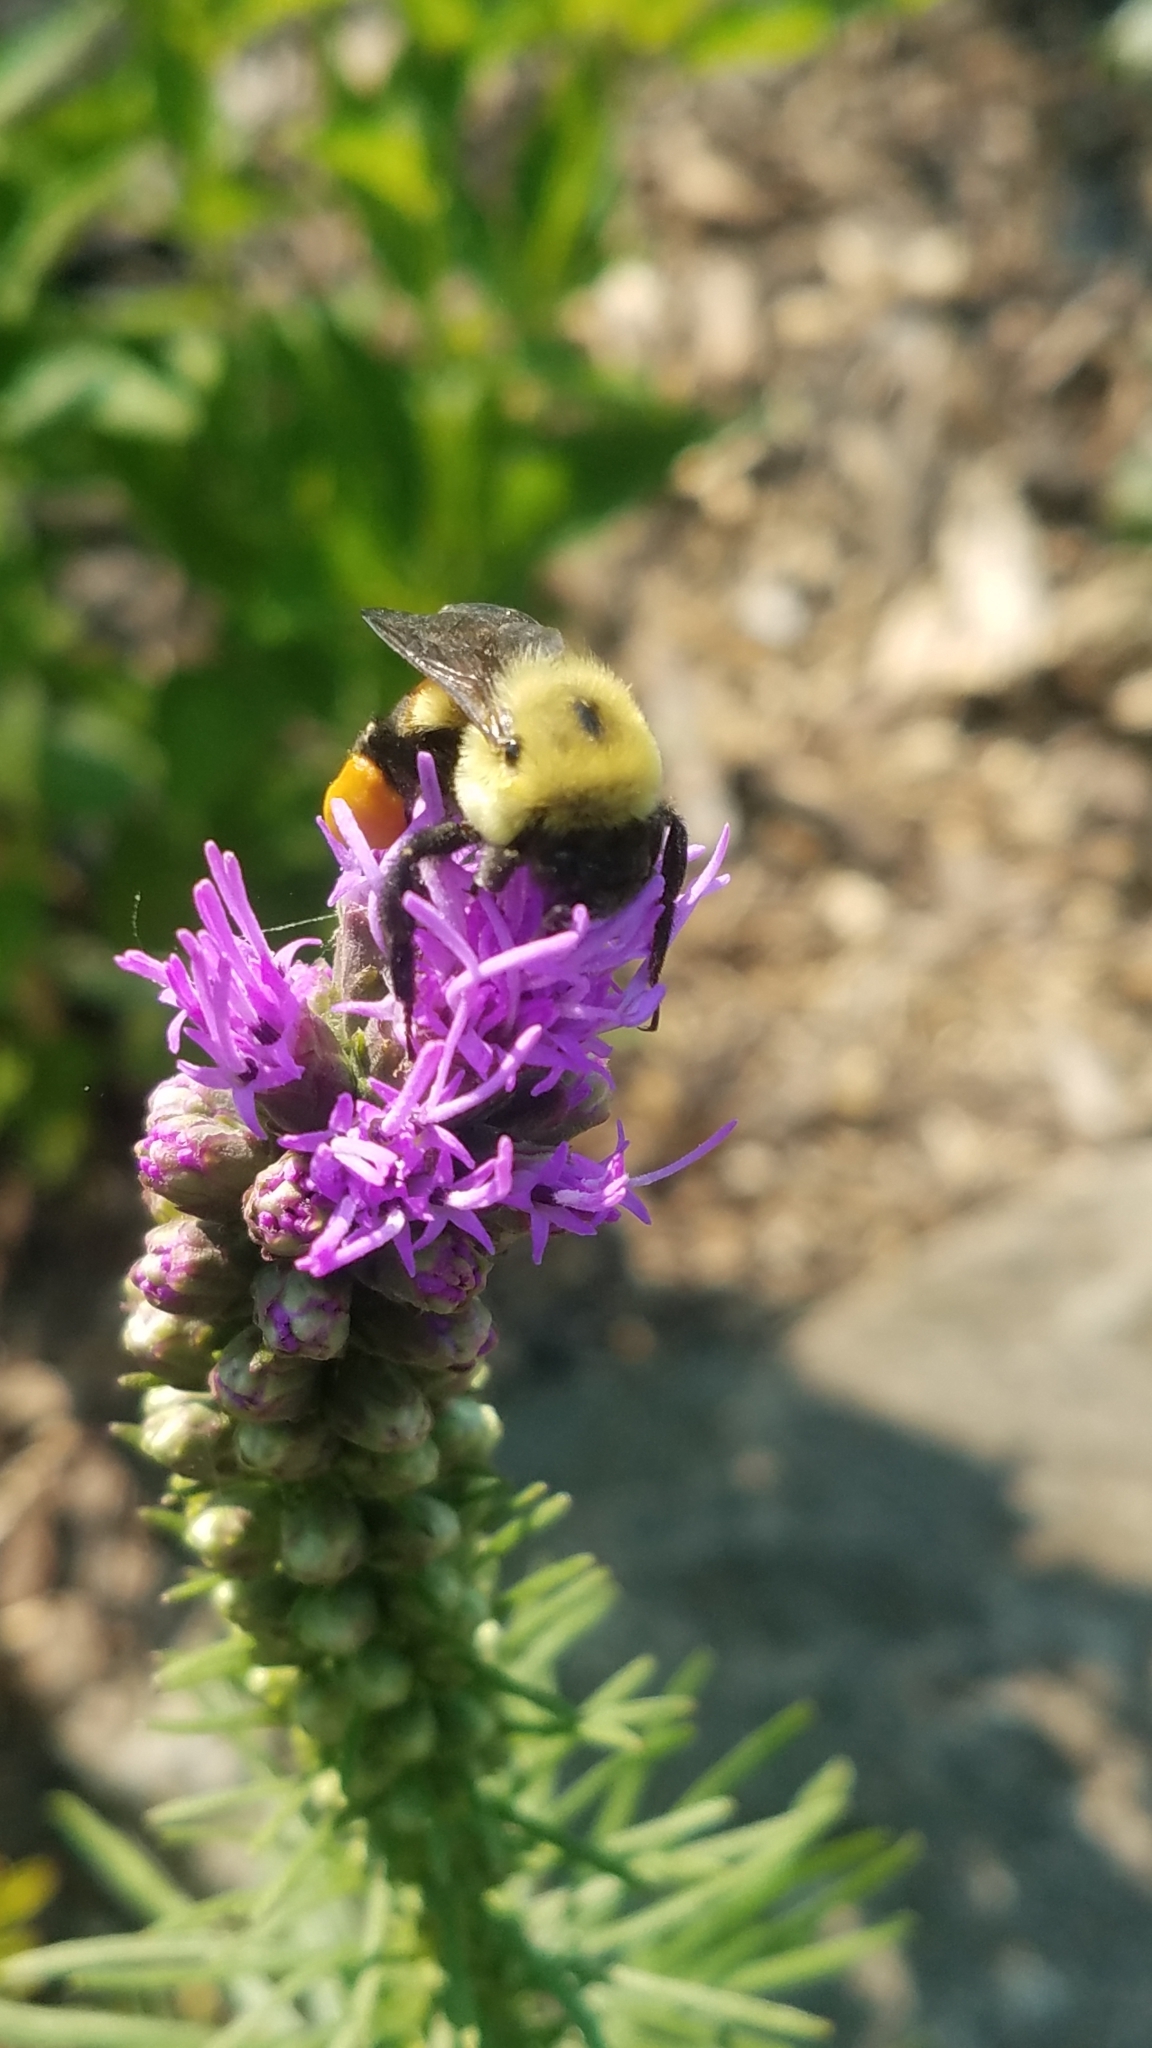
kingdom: Animalia
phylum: Arthropoda
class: Insecta
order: Hymenoptera
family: Apidae
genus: Bombus
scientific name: Bombus griseocollis
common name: Brown-belted bumble bee
